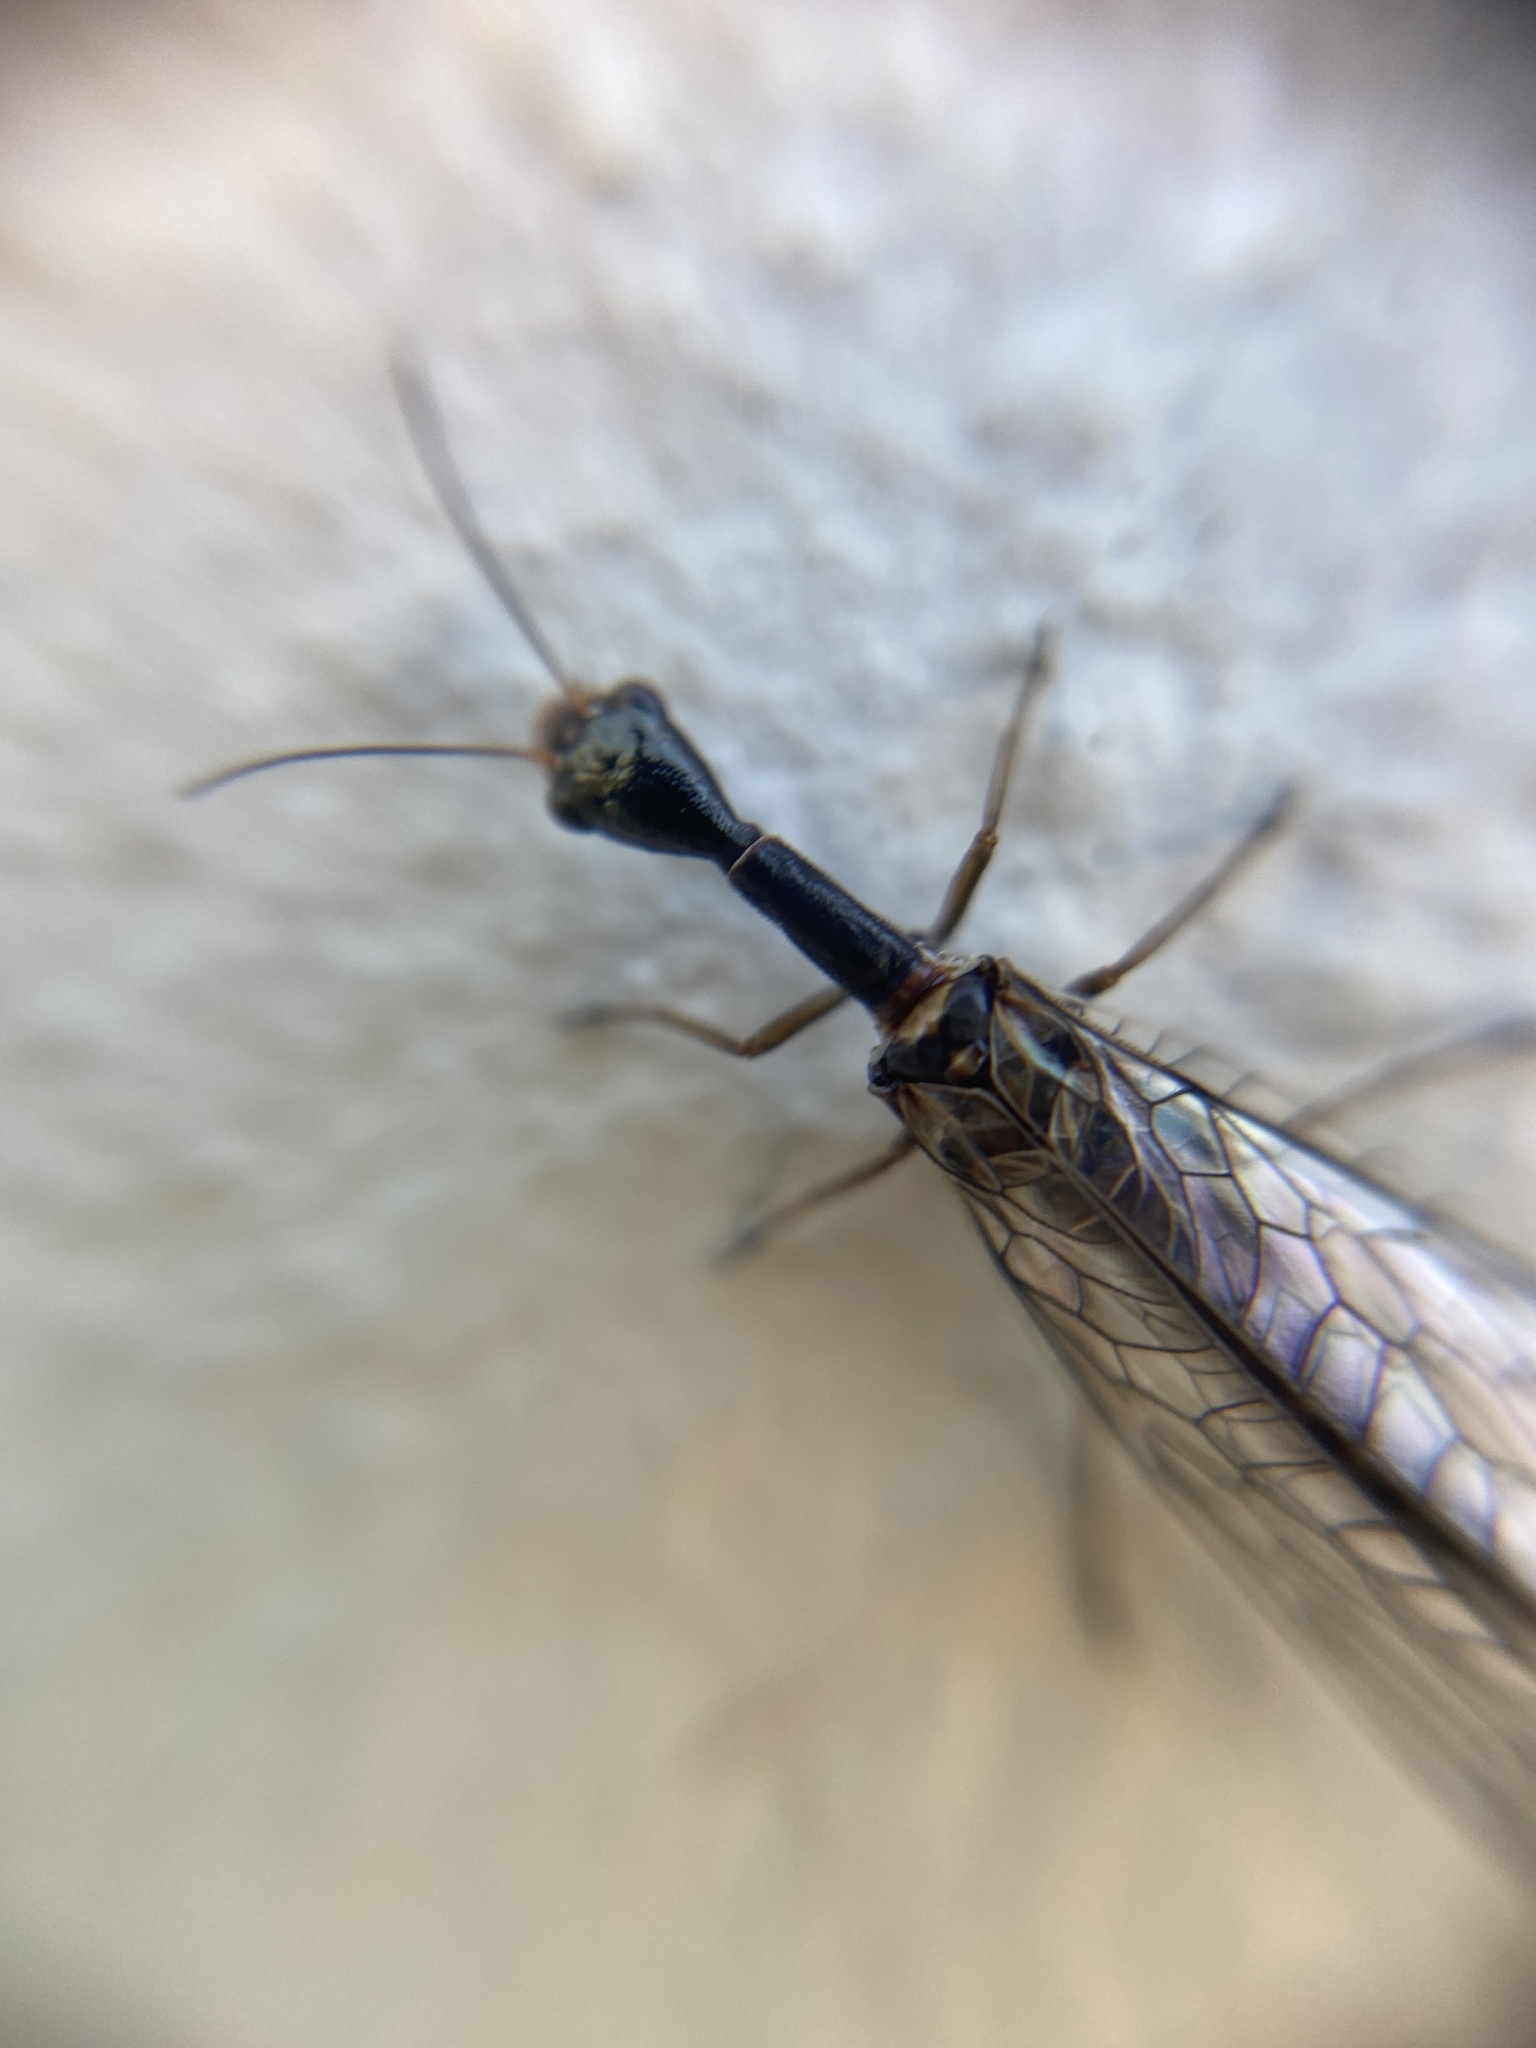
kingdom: Animalia
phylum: Arthropoda
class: Insecta
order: Raphidioptera
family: Raphidiidae
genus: Xanthostigma
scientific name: Xanthostigma xanthostigma
